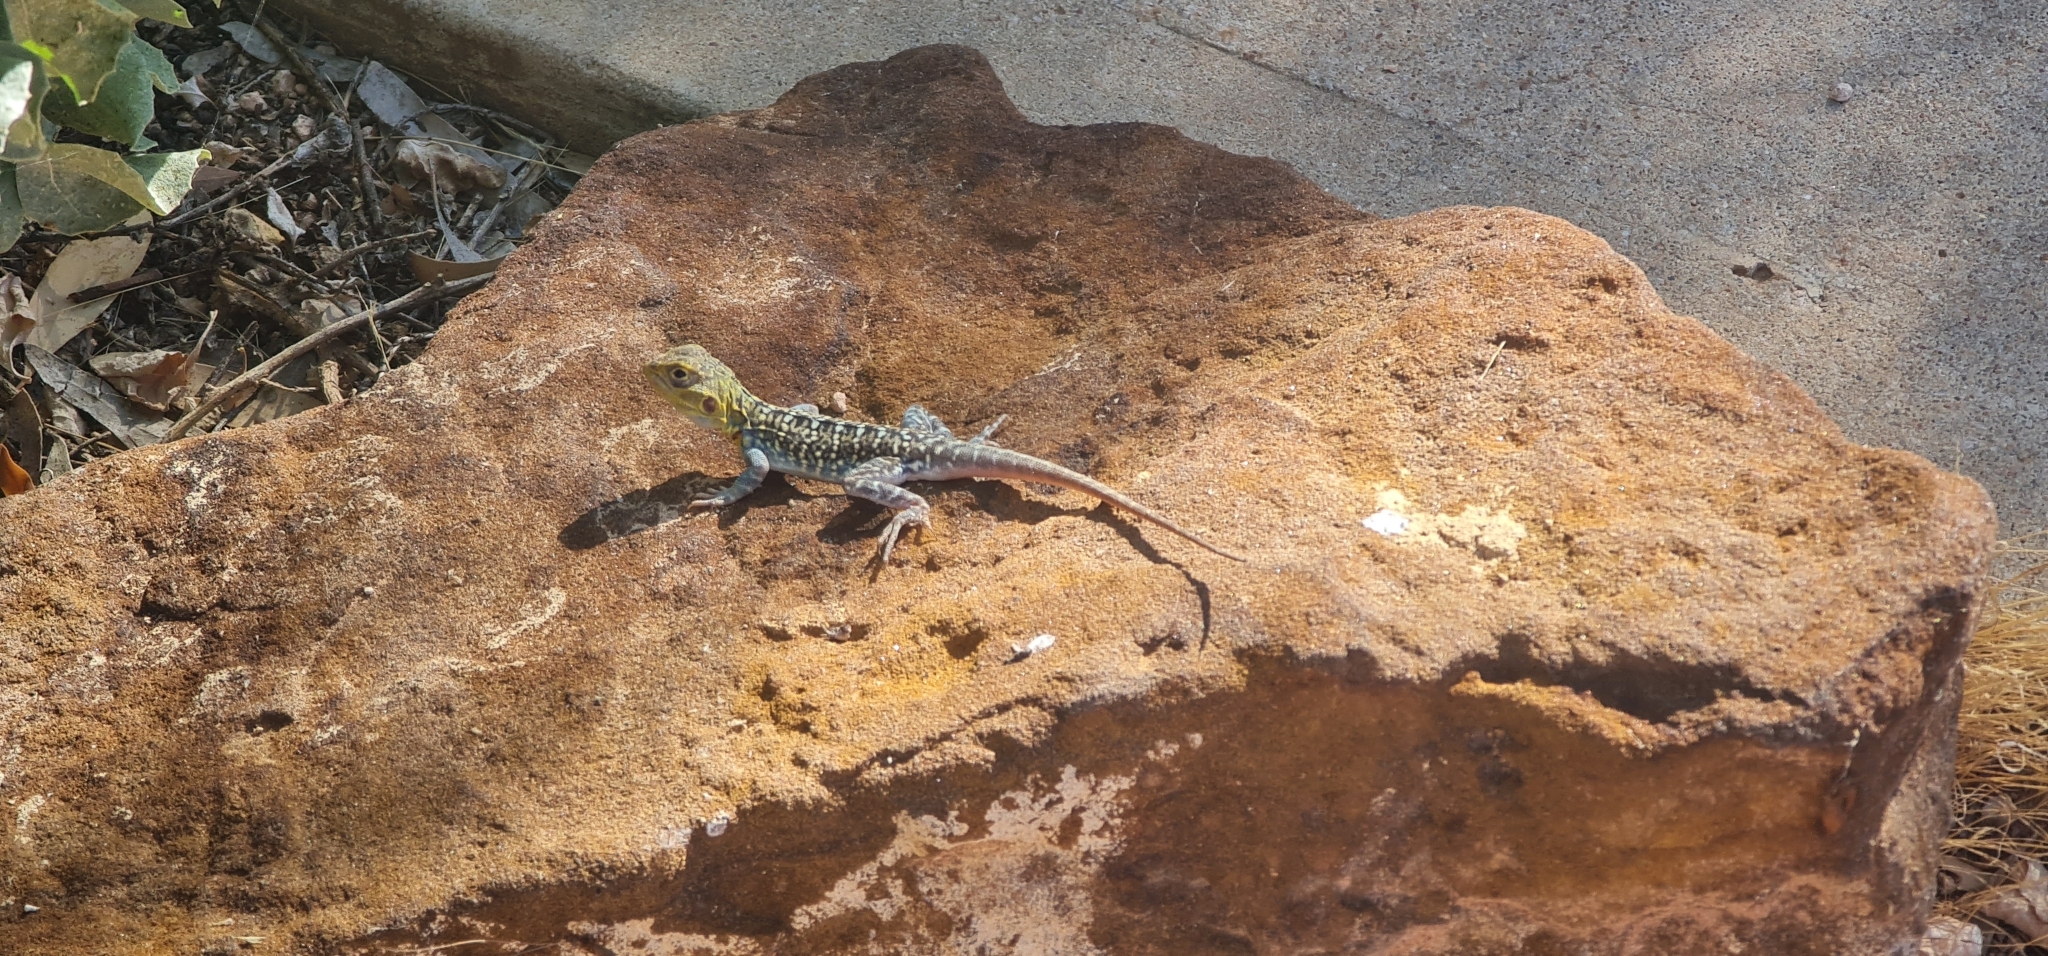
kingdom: Animalia
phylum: Chordata
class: Squamata
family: Agamidae
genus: Ctenophorus
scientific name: Ctenophorus pictus
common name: Painted dragon
